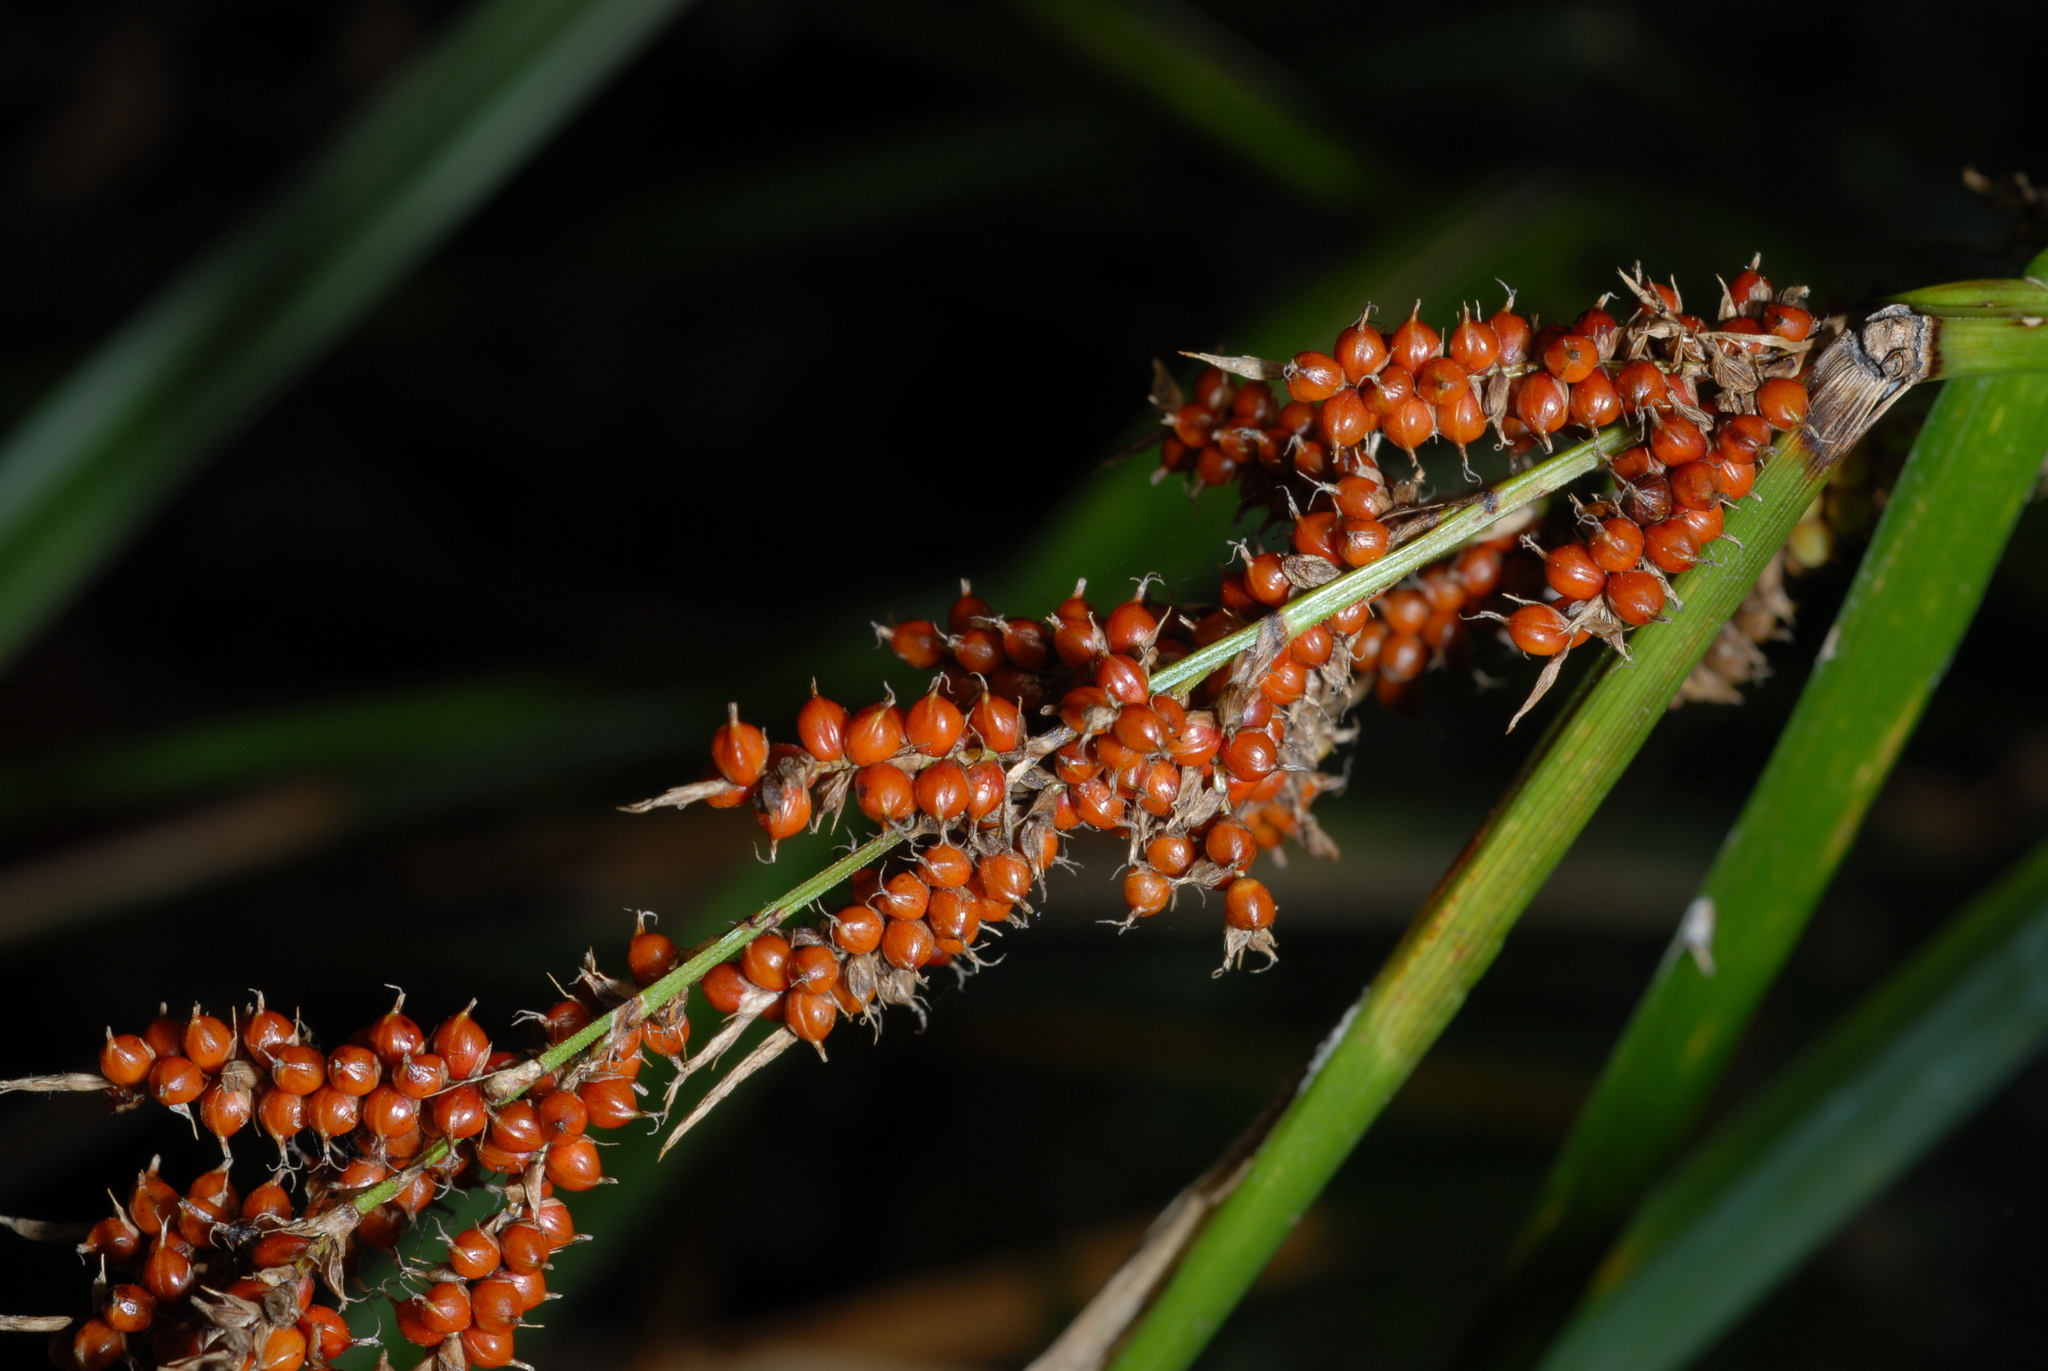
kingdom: Plantae
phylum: Tracheophyta
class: Liliopsida
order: Poales
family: Cyperaceae
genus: Carex
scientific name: Carex baccans
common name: Crimson seeded sedge
